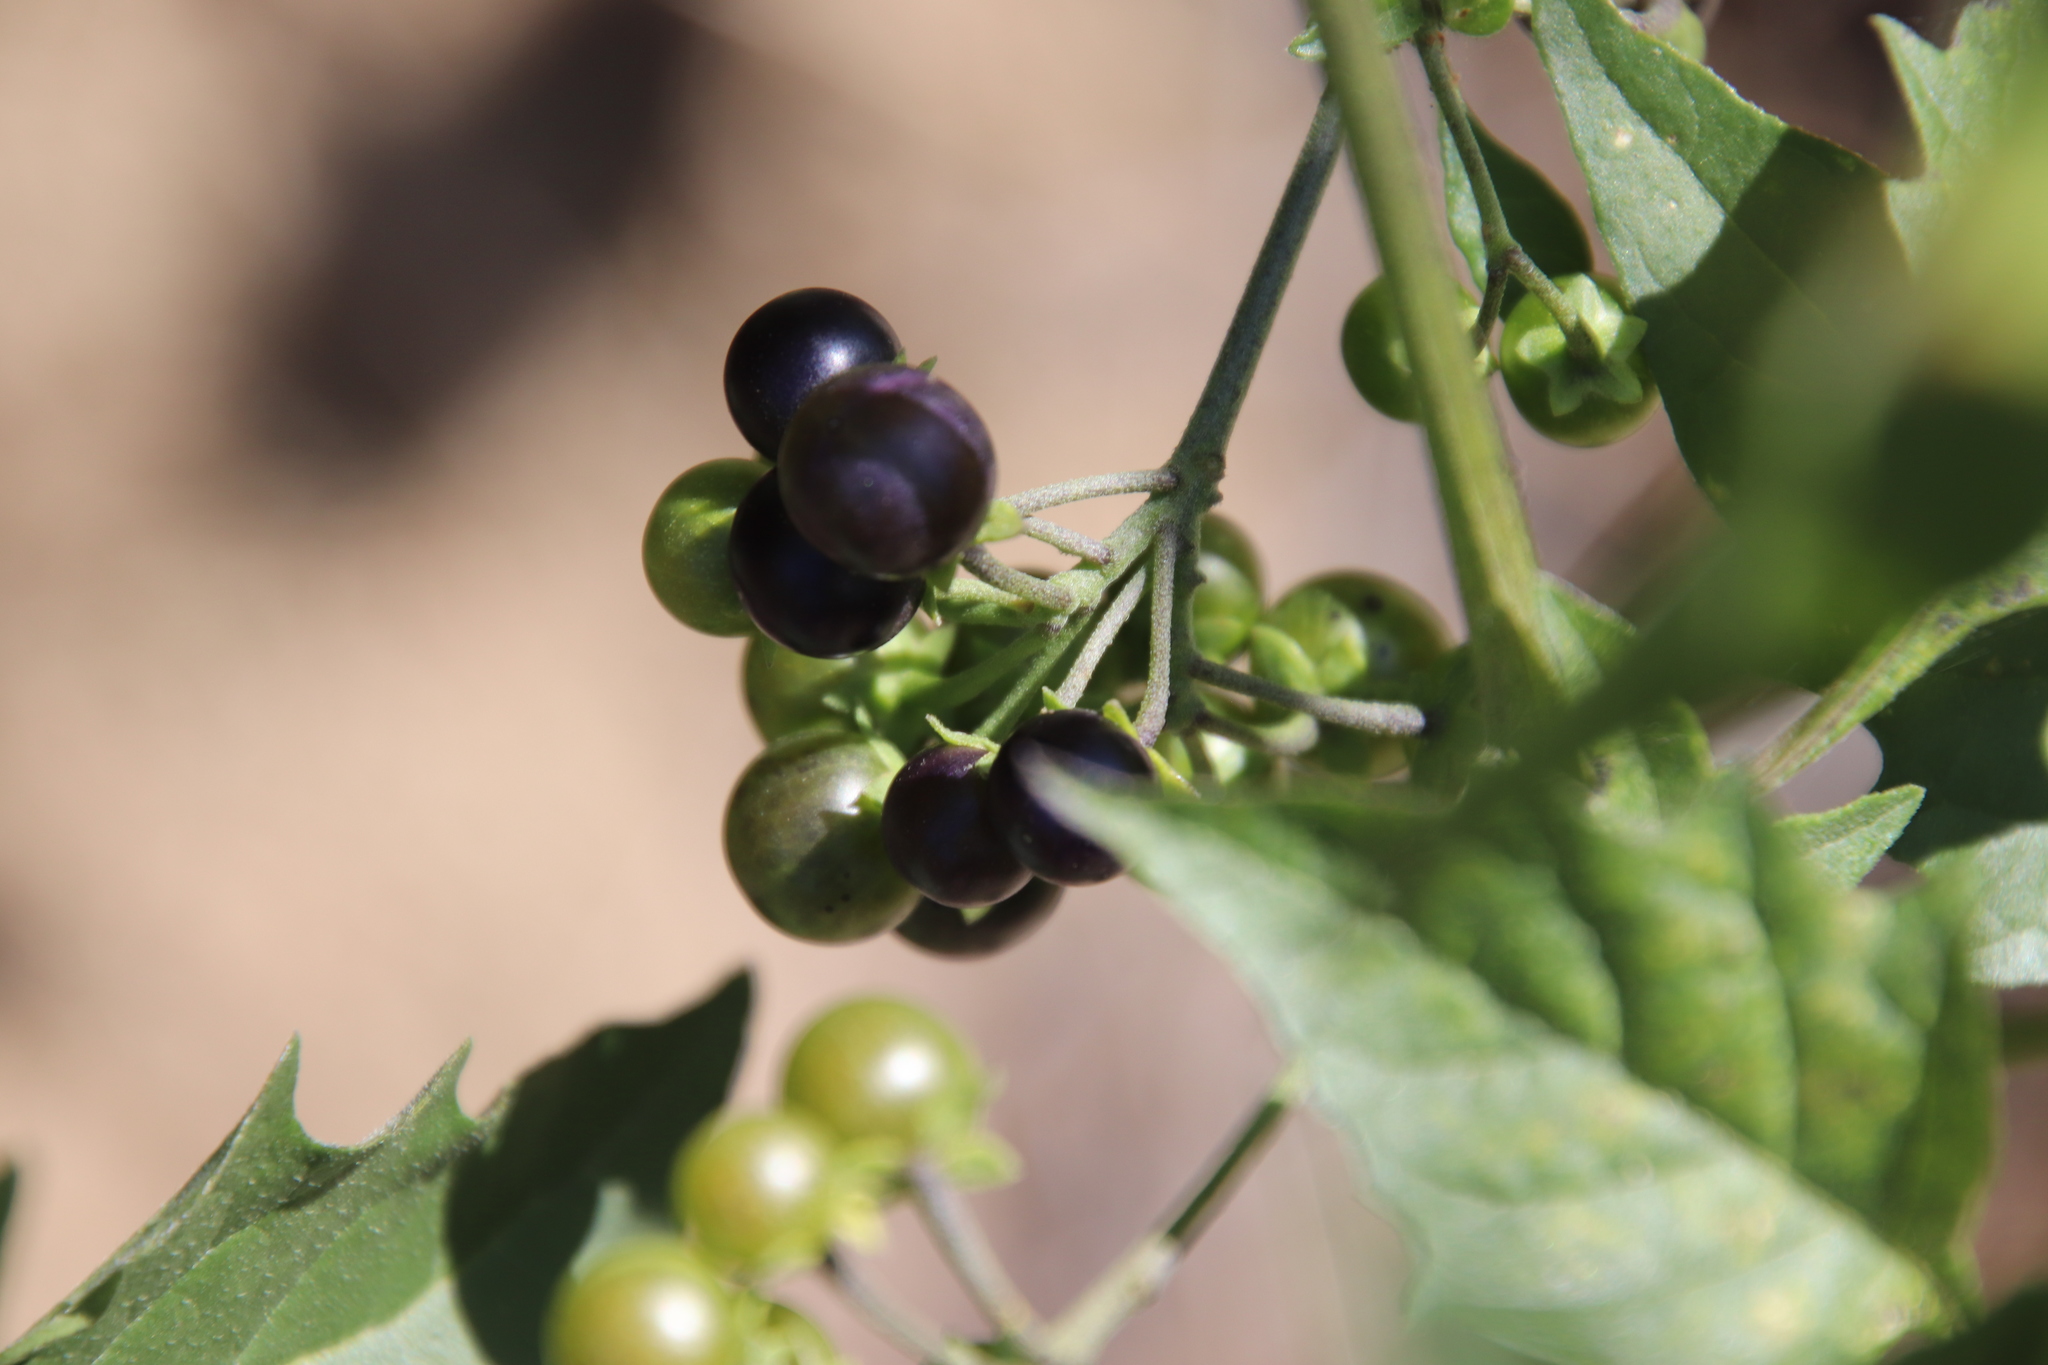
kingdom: Plantae
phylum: Tracheophyta
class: Magnoliopsida
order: Solanales
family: Solanaceae
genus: Solanum
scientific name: Solanum douglasii
